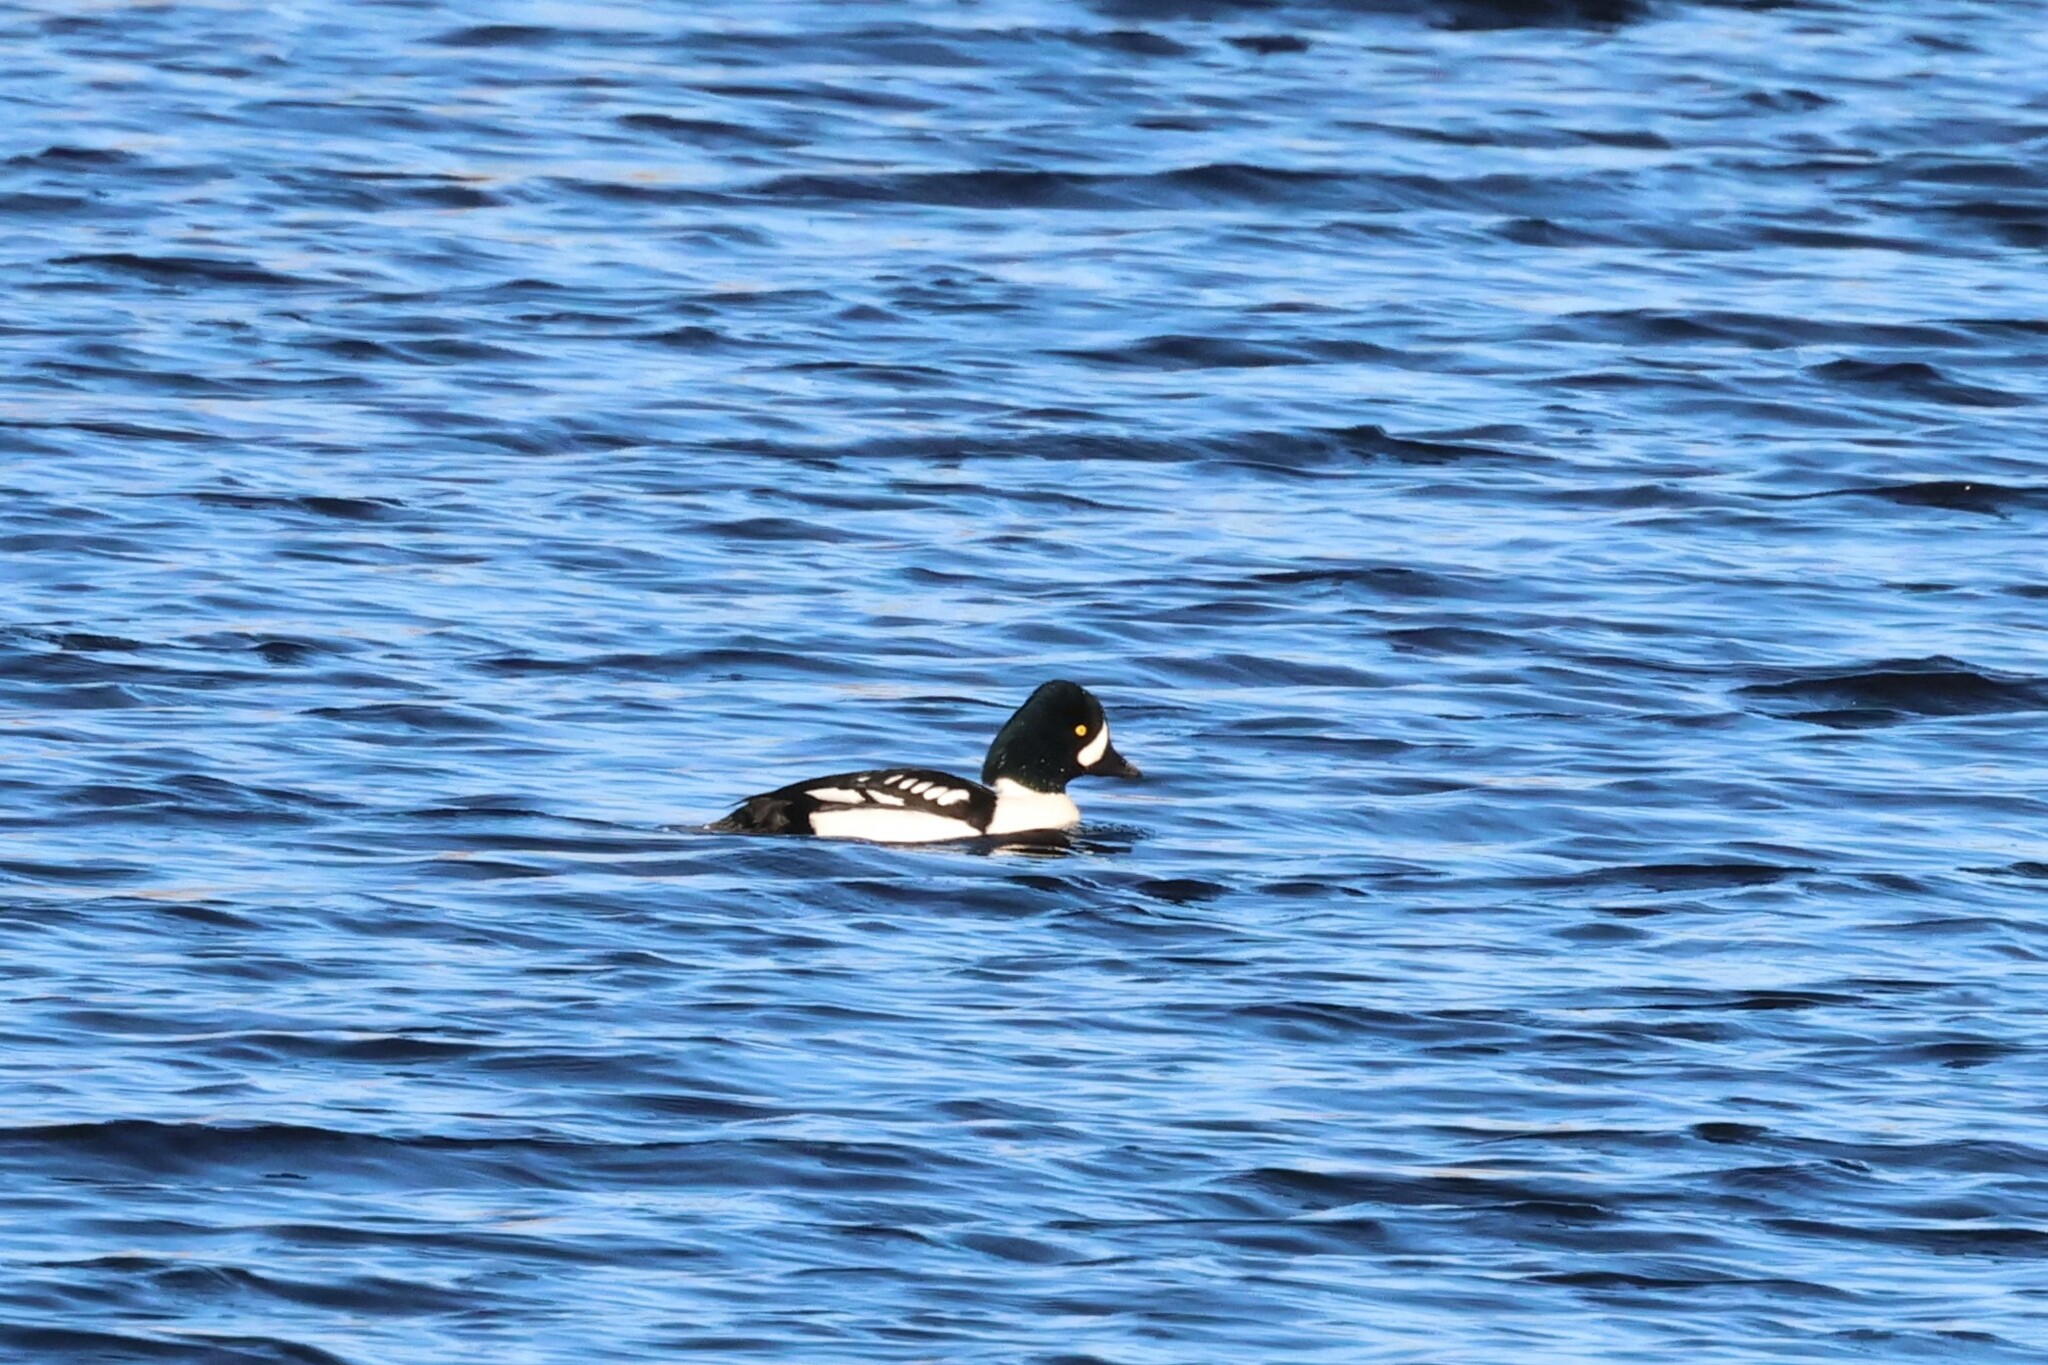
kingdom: Animalia
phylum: Chordata
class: Aves
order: Anseriformes
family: Anatidae
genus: Bucephala
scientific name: Bucephala islandica
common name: Barrow's goldeneye
